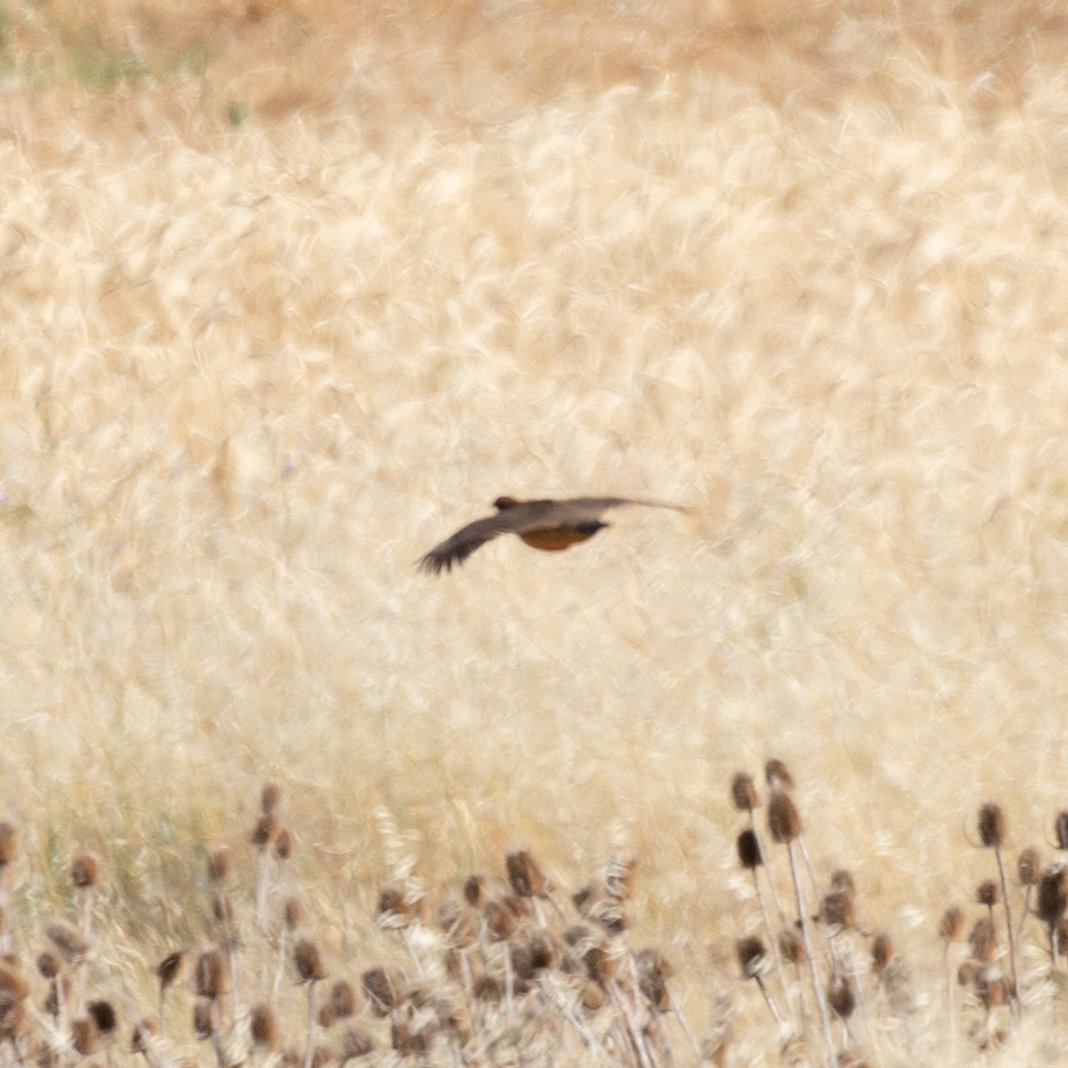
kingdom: Animalia
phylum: Chordata
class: Aves
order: Galliformes
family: Phasianidae
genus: Alectoris
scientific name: Alectoris rufa
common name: Red-legged partridge
